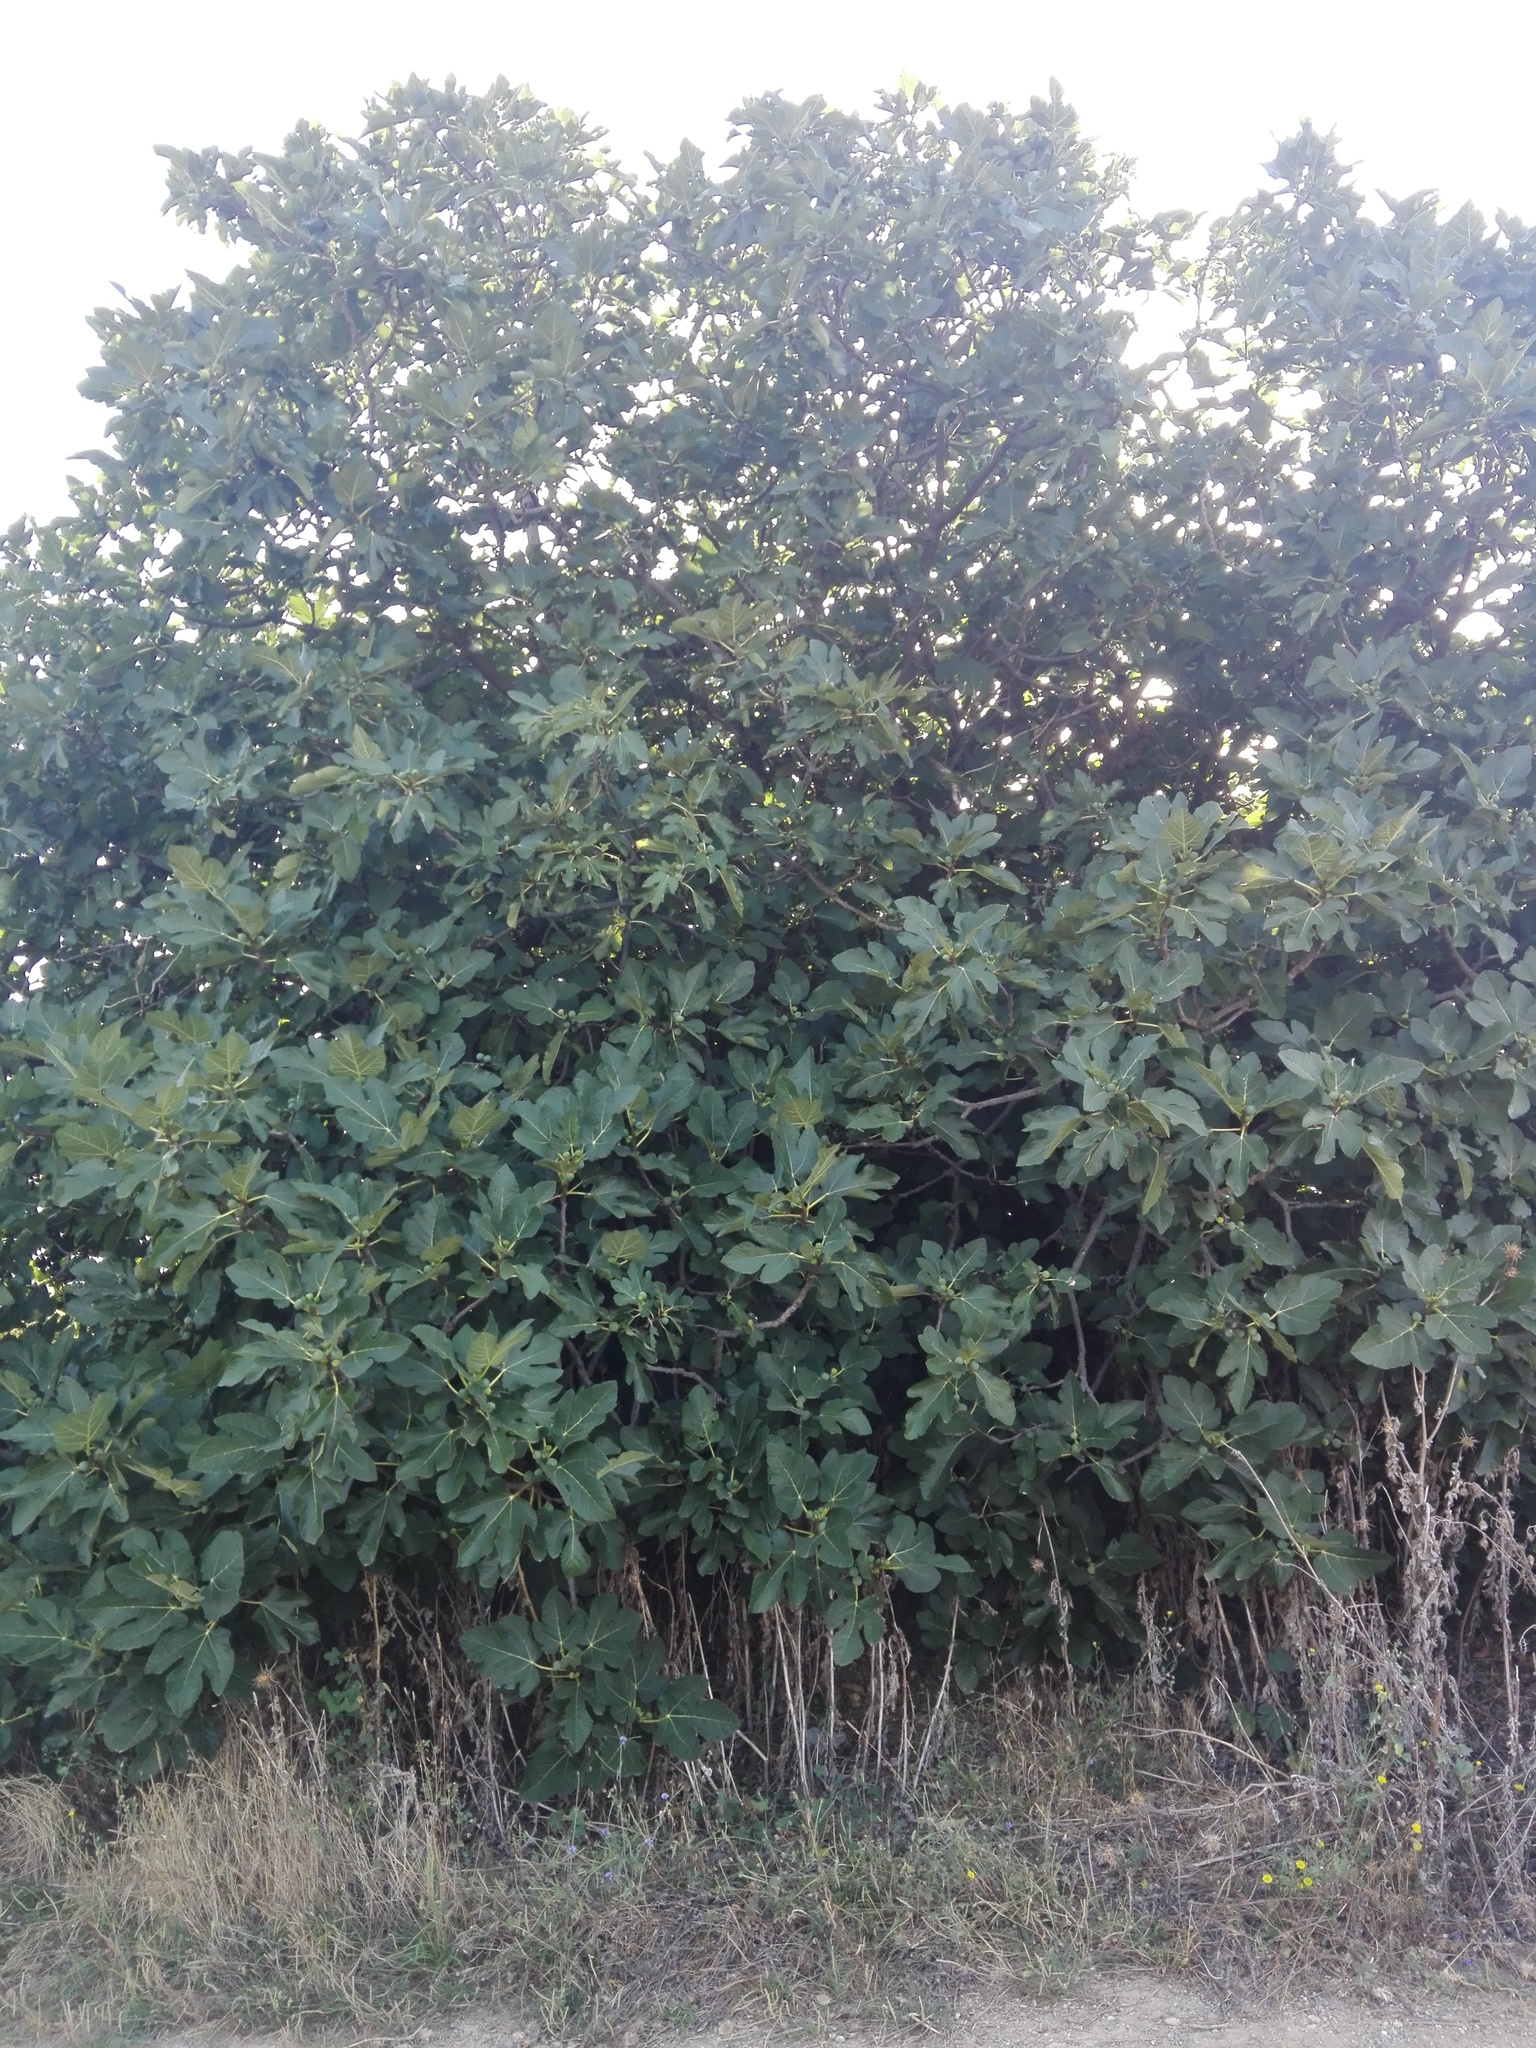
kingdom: Plantae
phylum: Tracheophyta
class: Magnoliopsida
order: Rosales
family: Moraceae
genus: Ficus
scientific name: Ficus carica
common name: Fig
